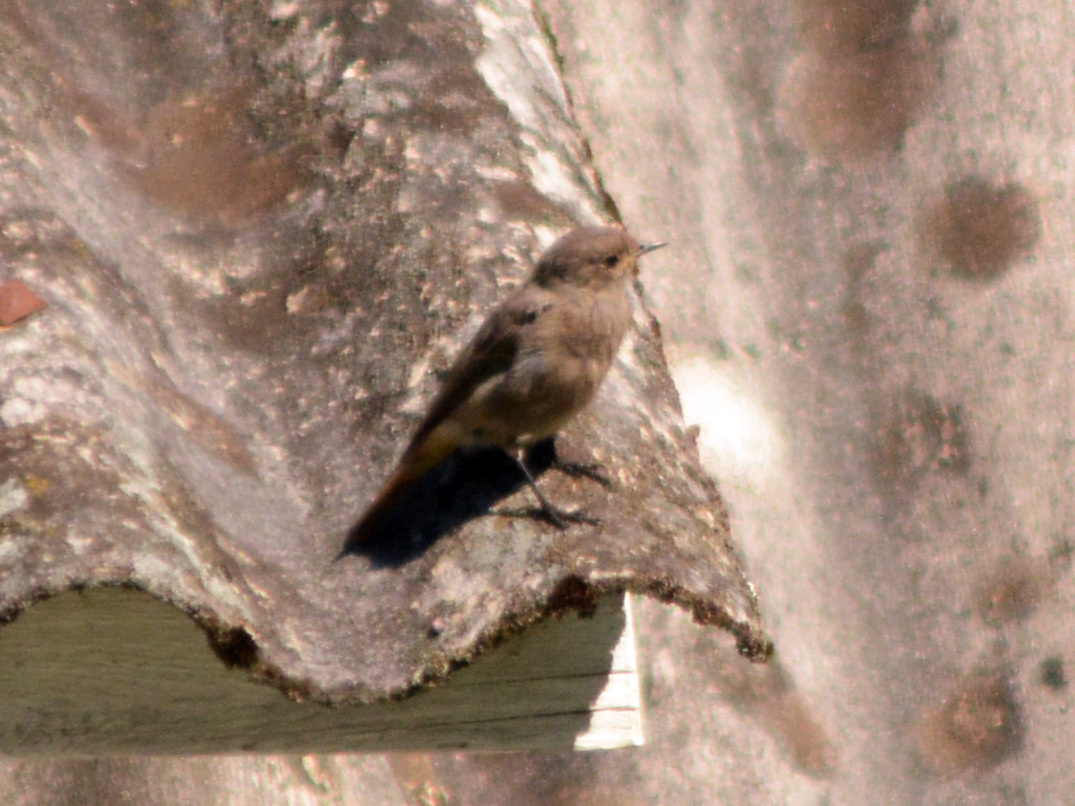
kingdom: Animalia
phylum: Chordata
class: Aves
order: Passeriformes
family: Muscicapidae
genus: Phoenicurus
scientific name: Phoenicurus ochruros
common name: Black redstart
